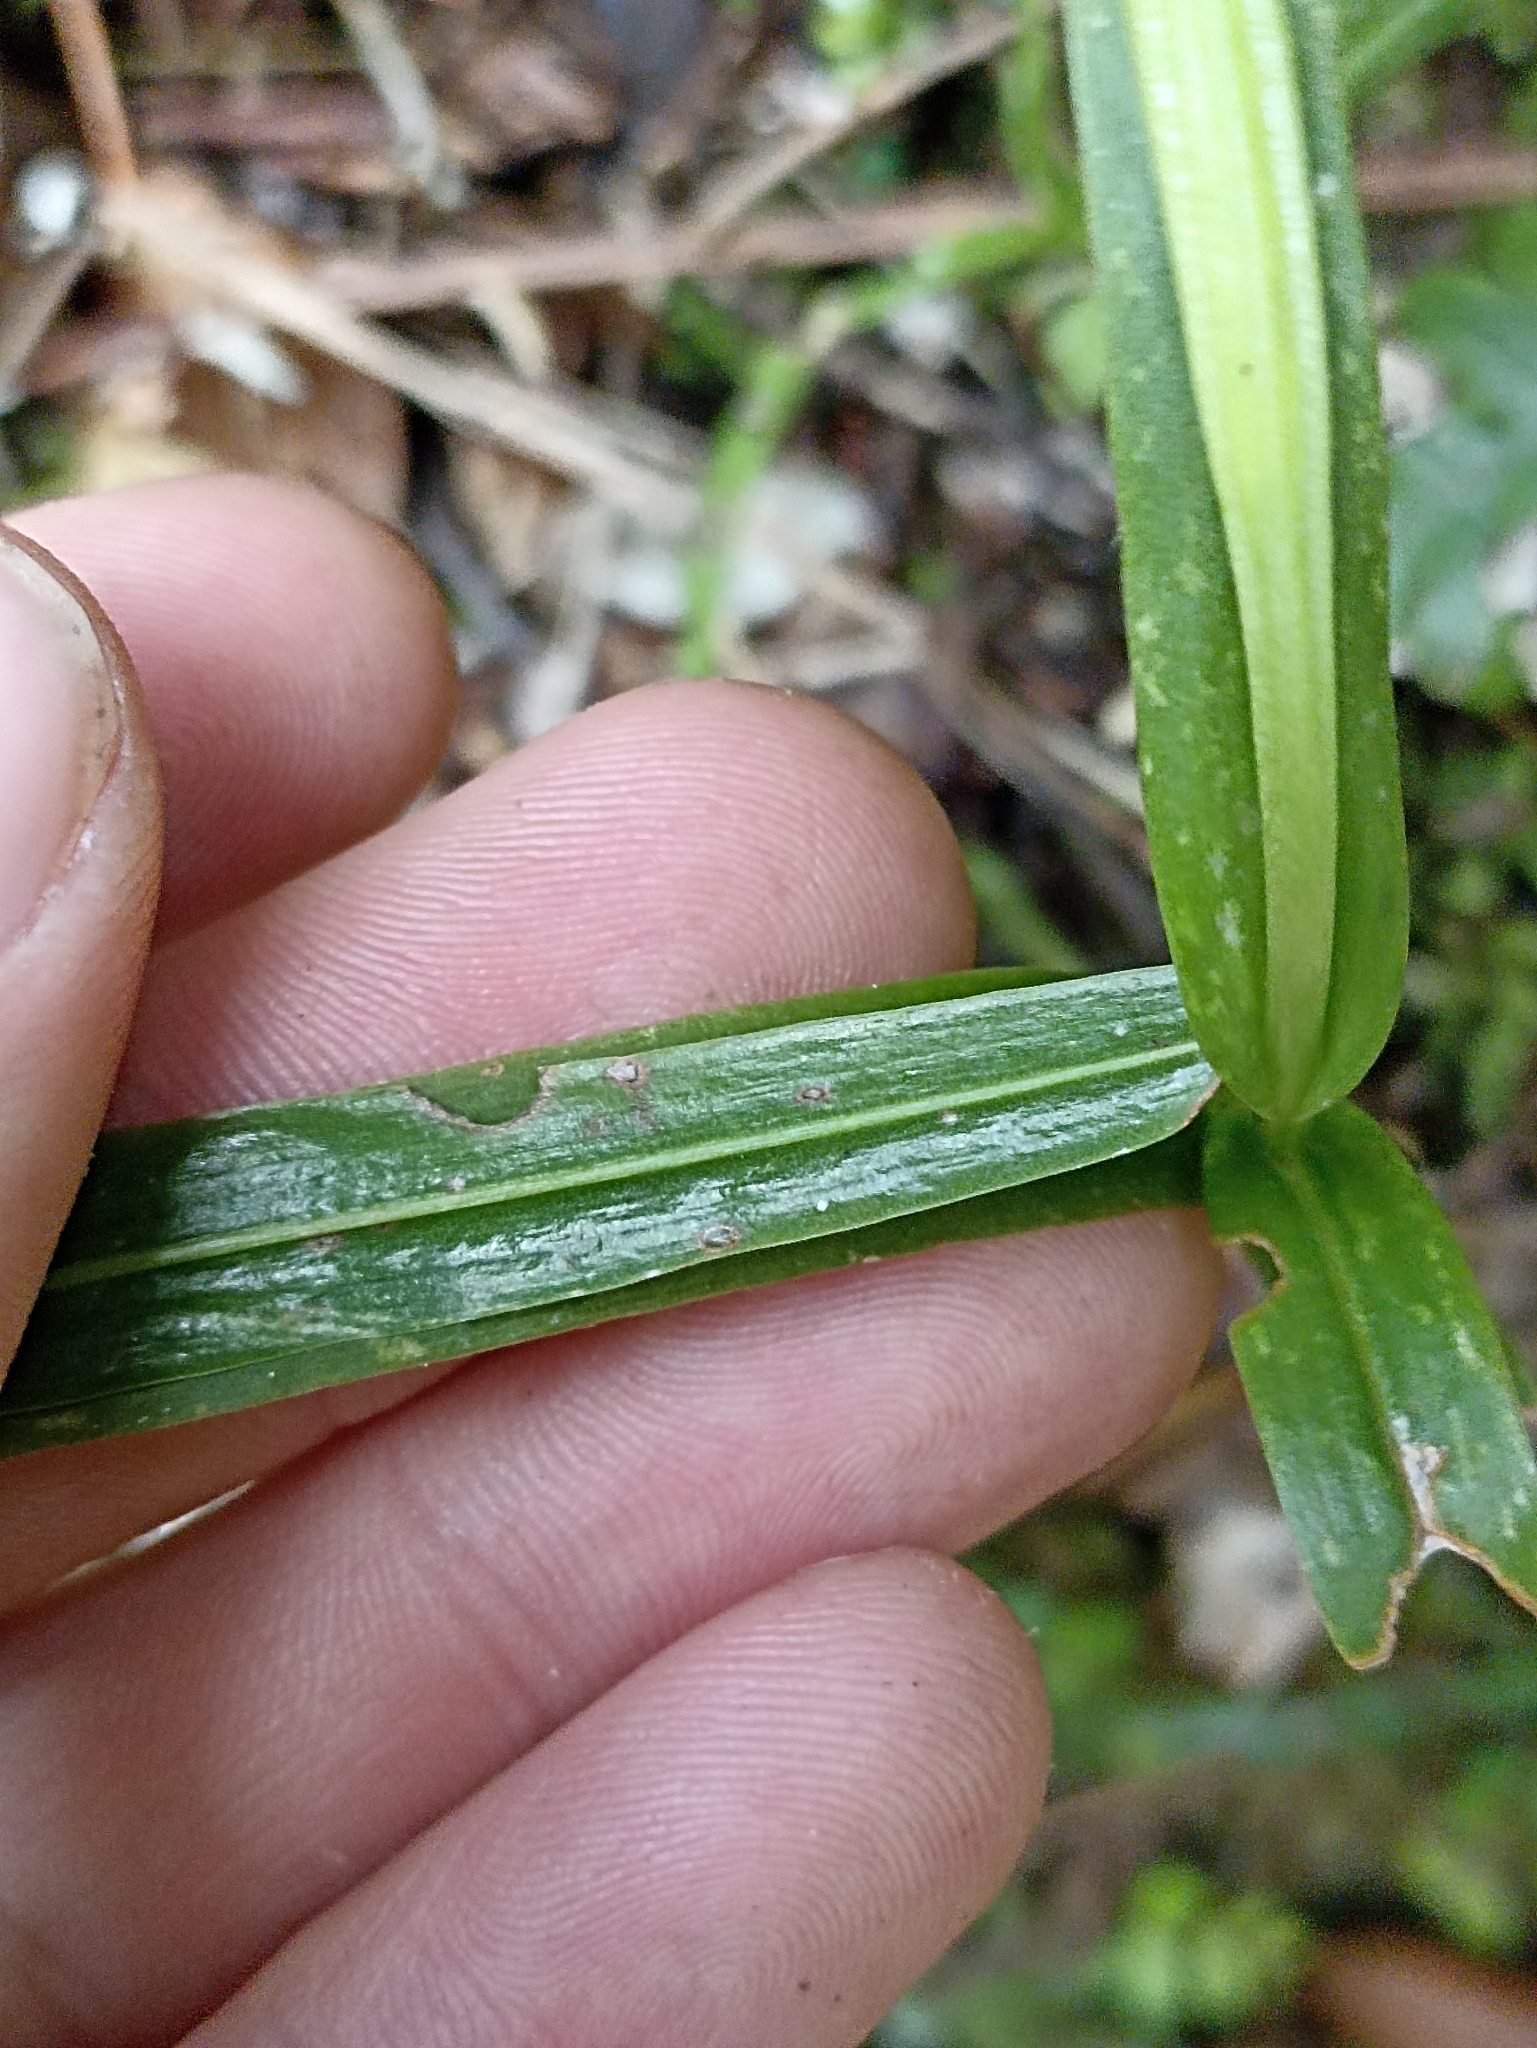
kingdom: Plantae
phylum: Tracheophyta
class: Liliopsida
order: Asparagales
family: Orchidaceae
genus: Pterostylis
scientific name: Pterostylis banksii
